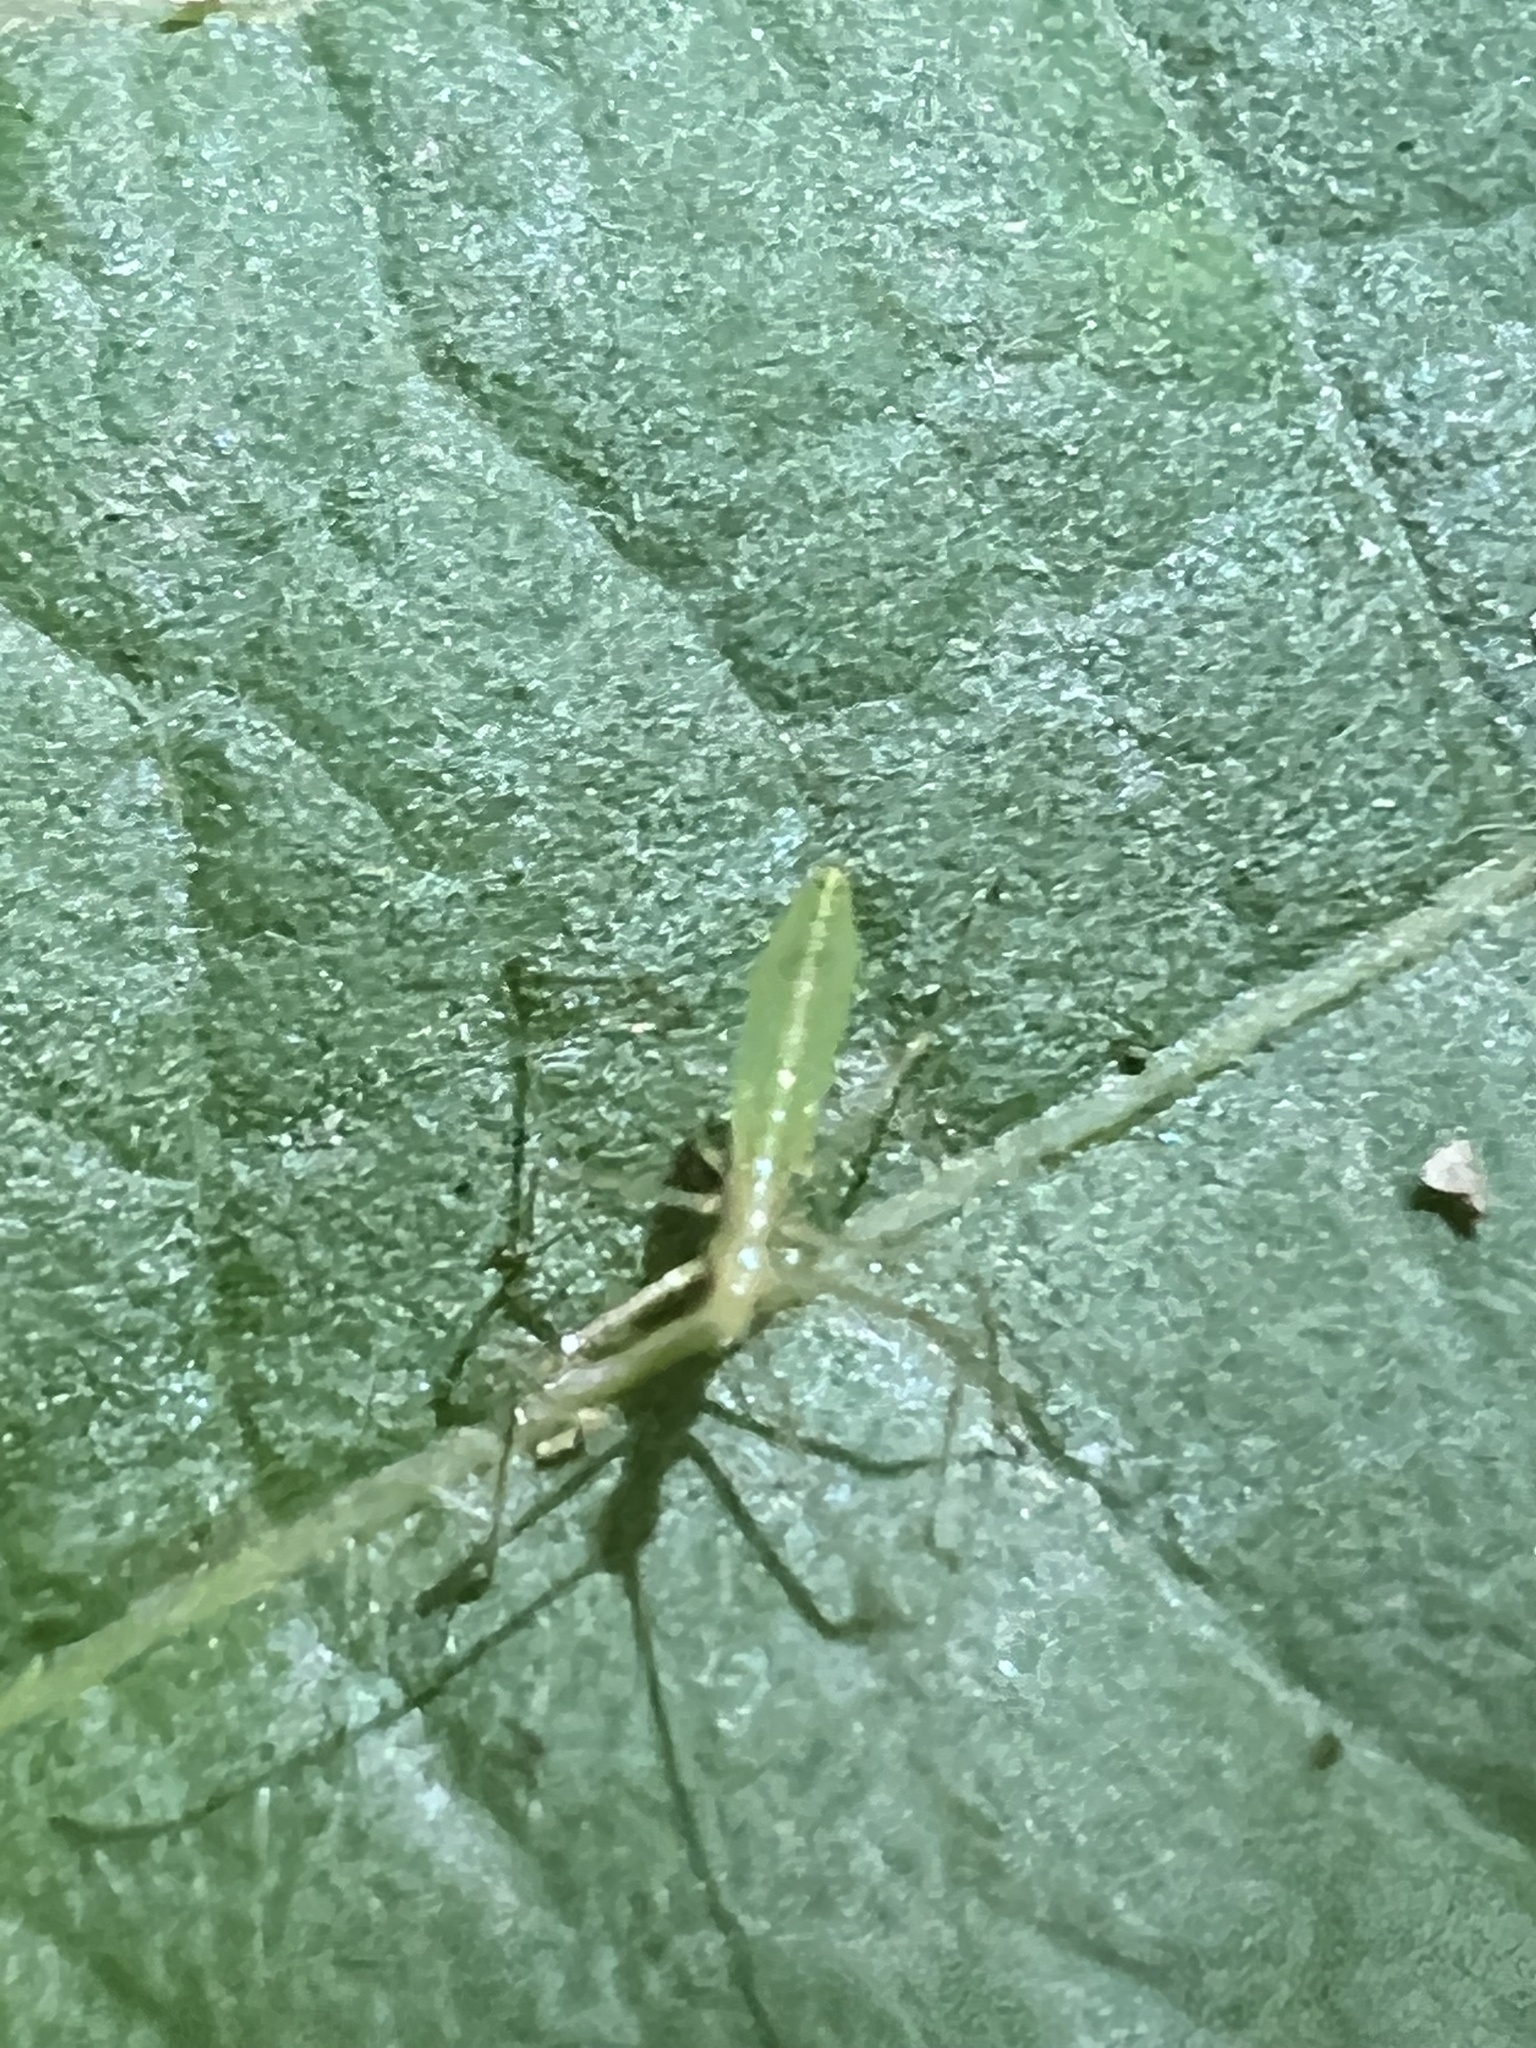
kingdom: Animalia
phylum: Arthropoda
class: Insecta
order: Hemiptera
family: Reduviidae
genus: Zelus
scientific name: Zelus luridus
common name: Pale green assassin bug
